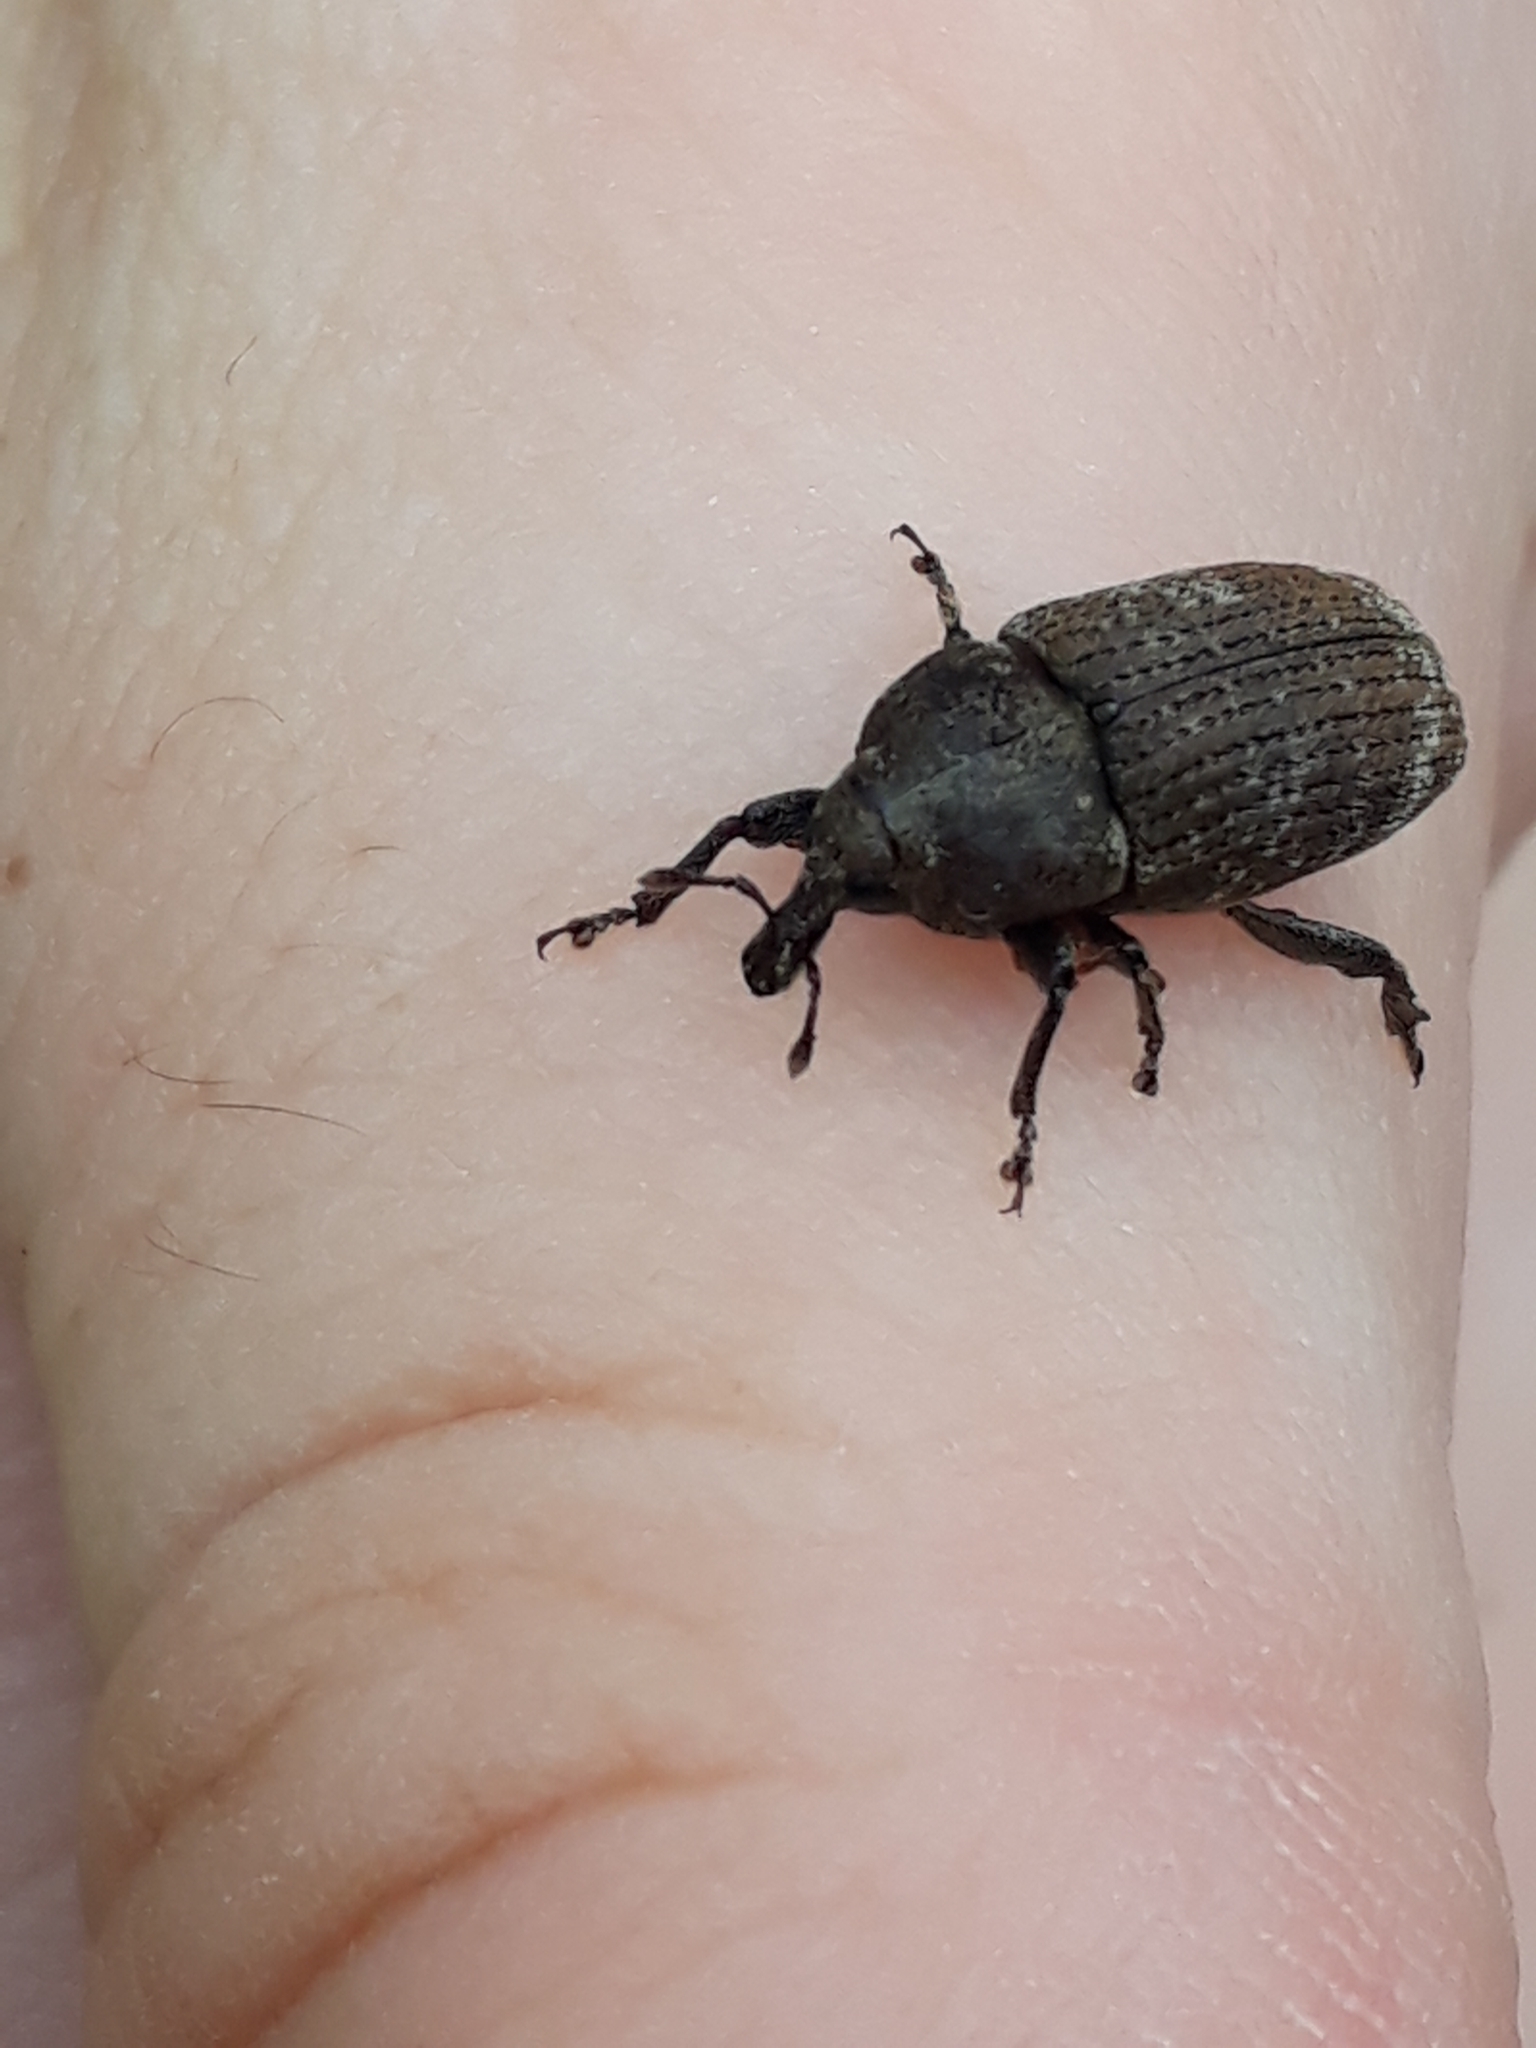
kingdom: Animalia
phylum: Arthropoda
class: Insecta
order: Coleoptera
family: Curculionidae
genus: Homoreda
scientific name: Homoreda
